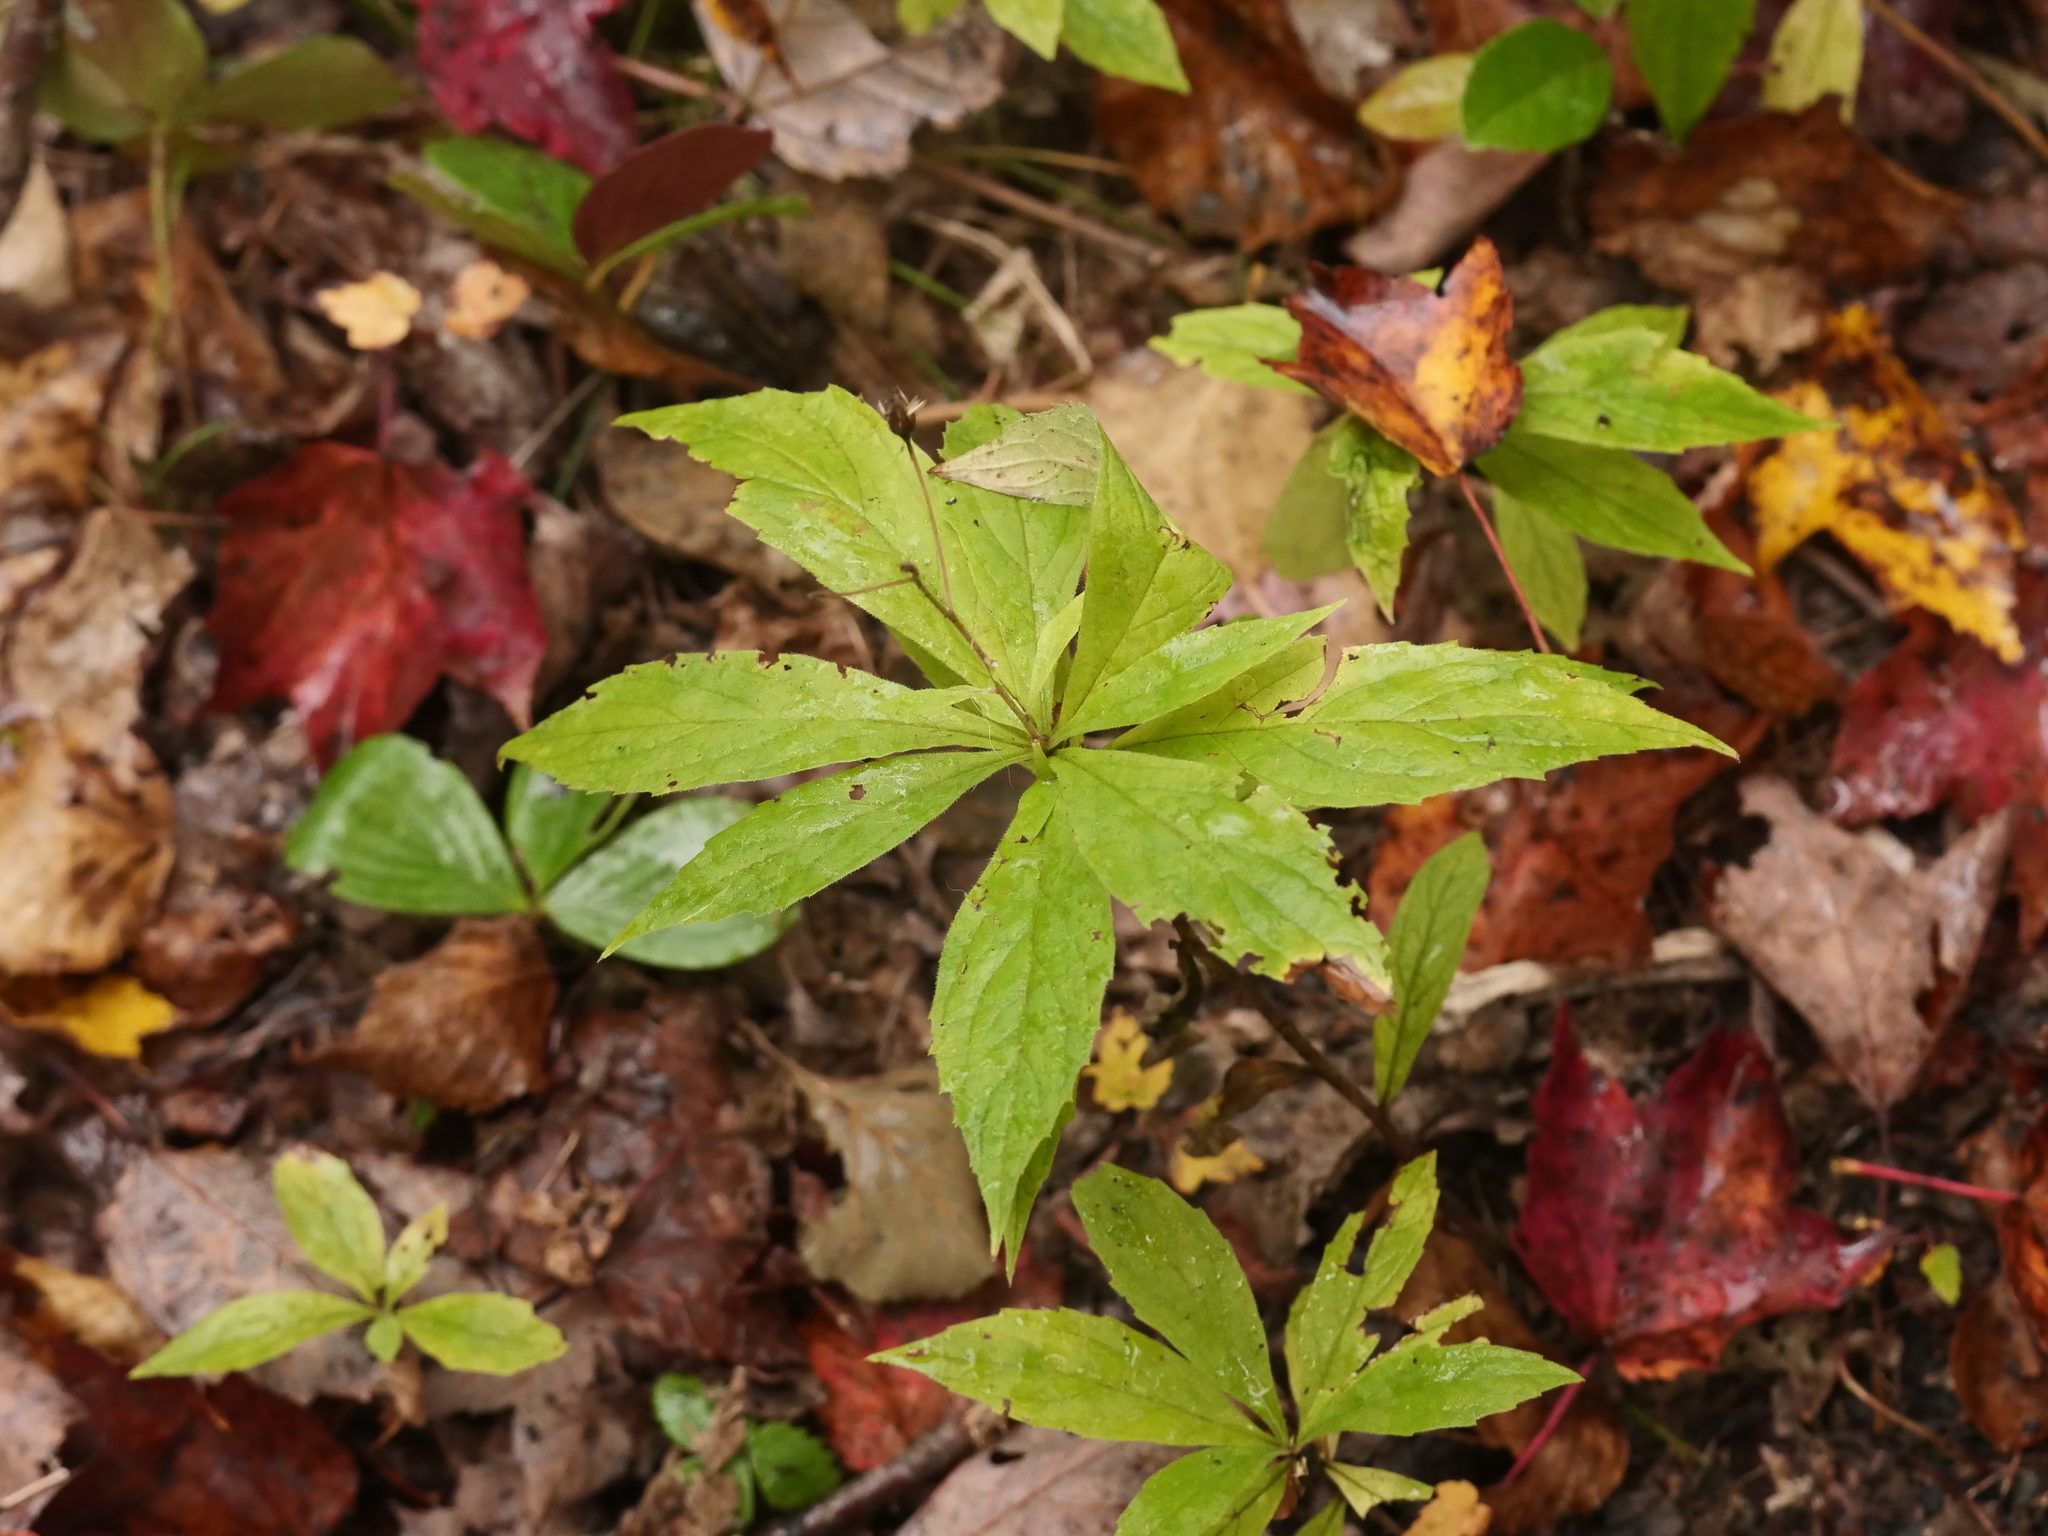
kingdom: Plantae
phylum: Tracheophyta
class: Magnoliopsida
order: Asterales
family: Asteraceae
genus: Oclemena
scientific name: Oclemena acuminata
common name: Mountain aster
